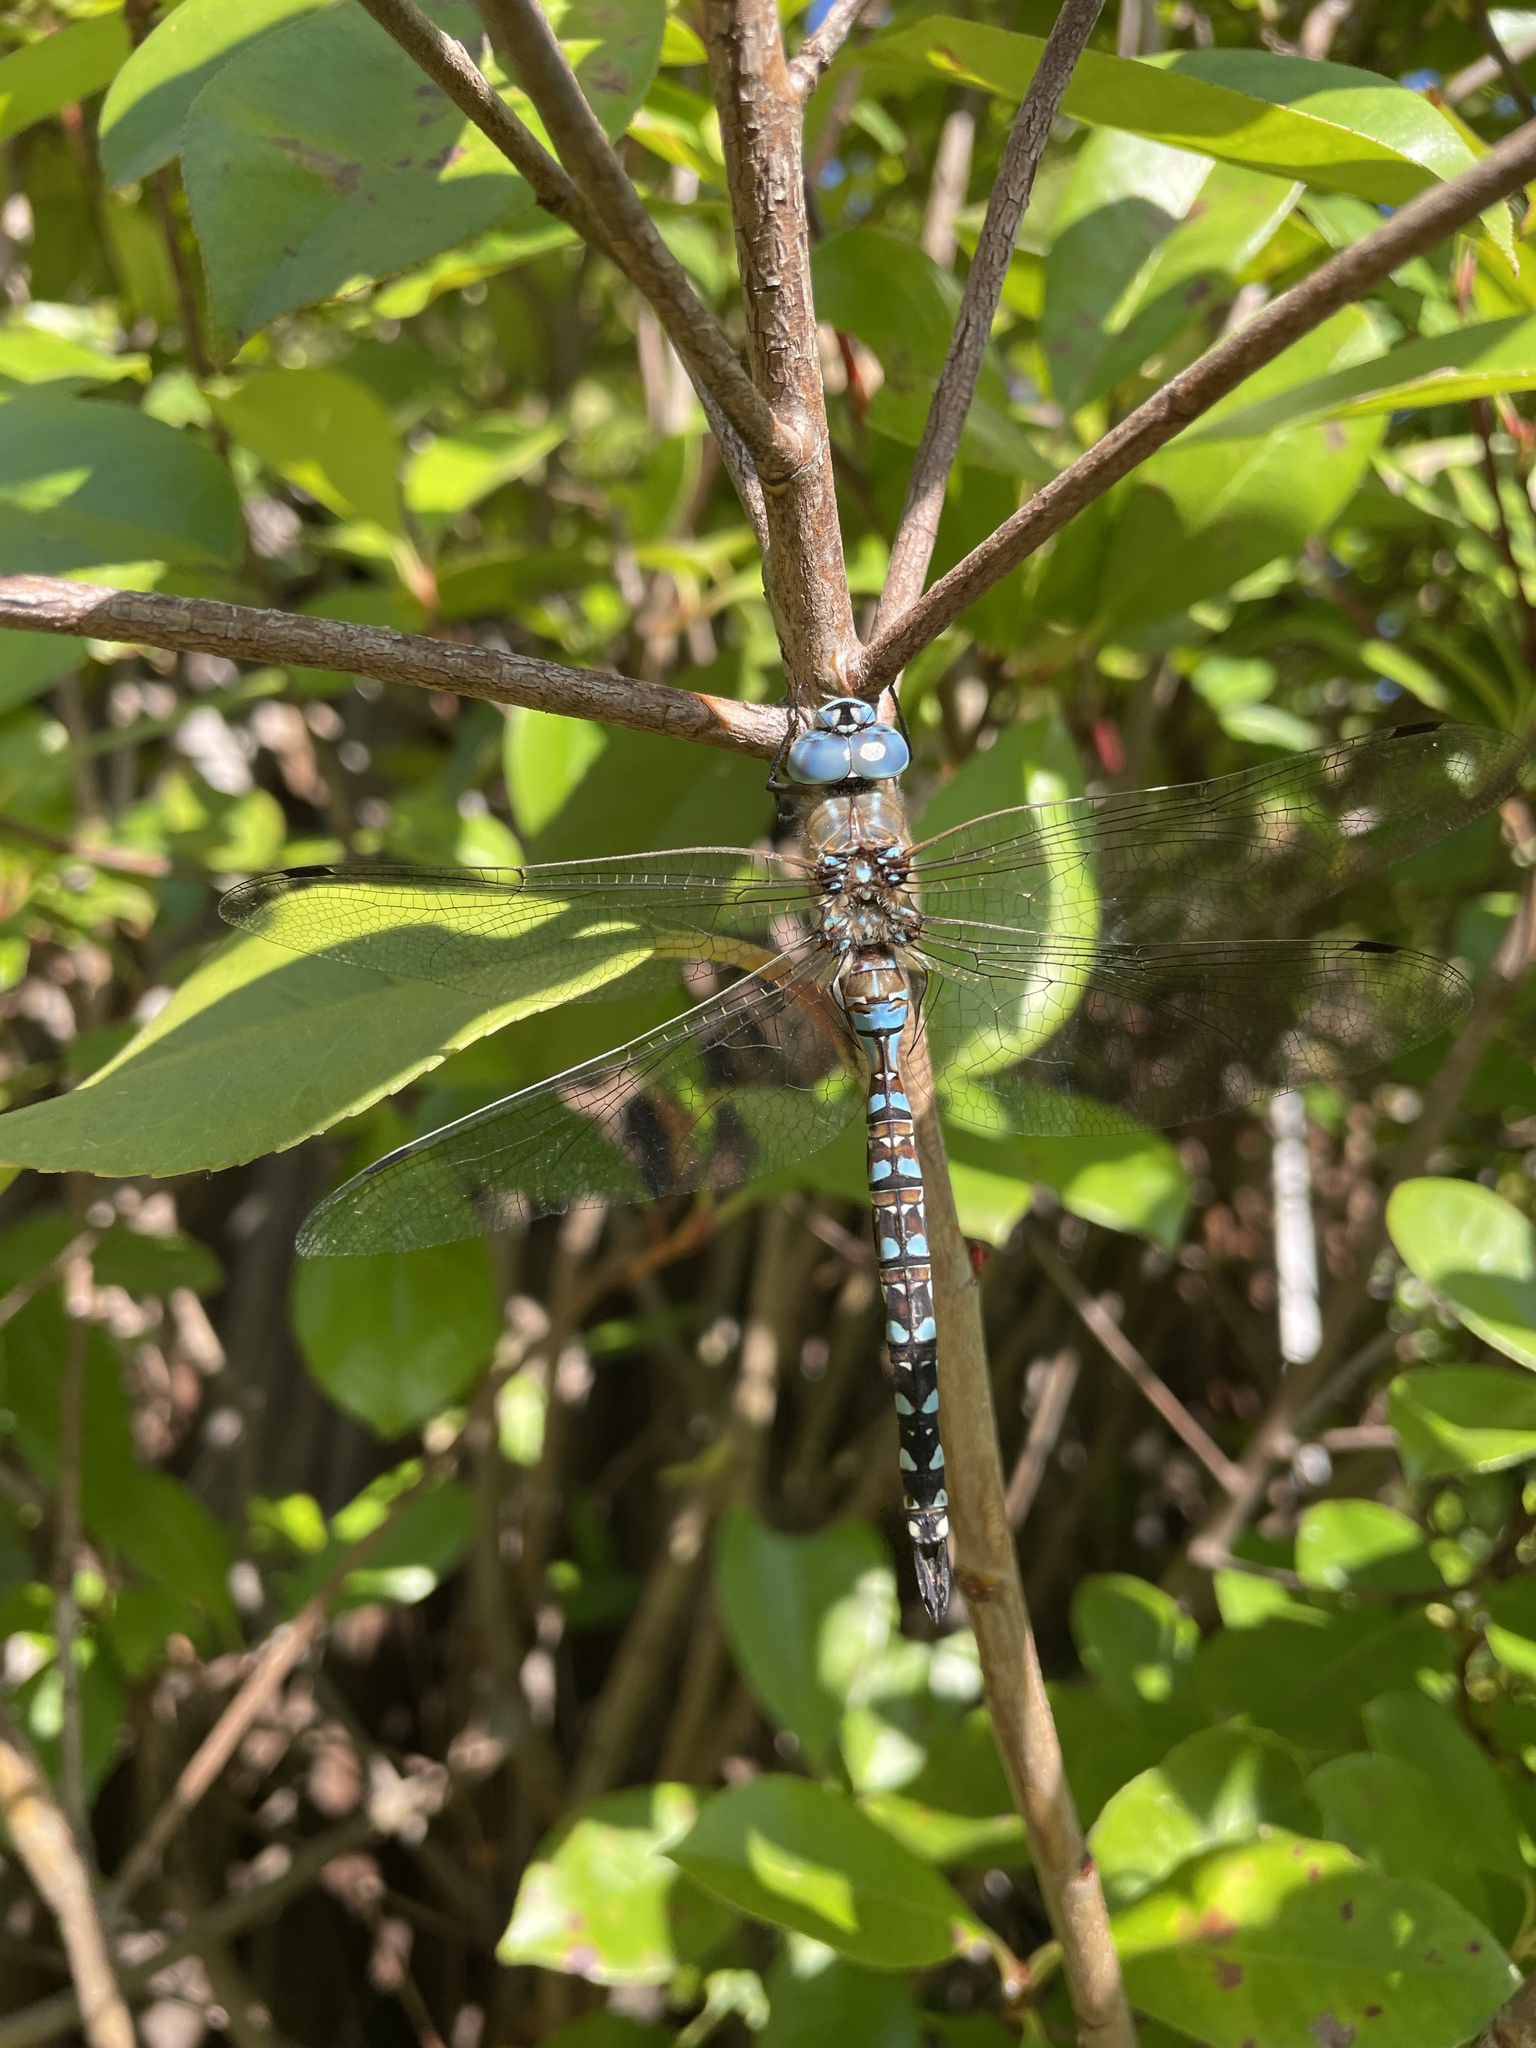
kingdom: Animalia
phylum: Arthropoda
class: Insecta
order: Odonata
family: Aeshnidae
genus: Rhionaeschna
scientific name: Rhionaeschna multicolor
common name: Blue-eyed darner
